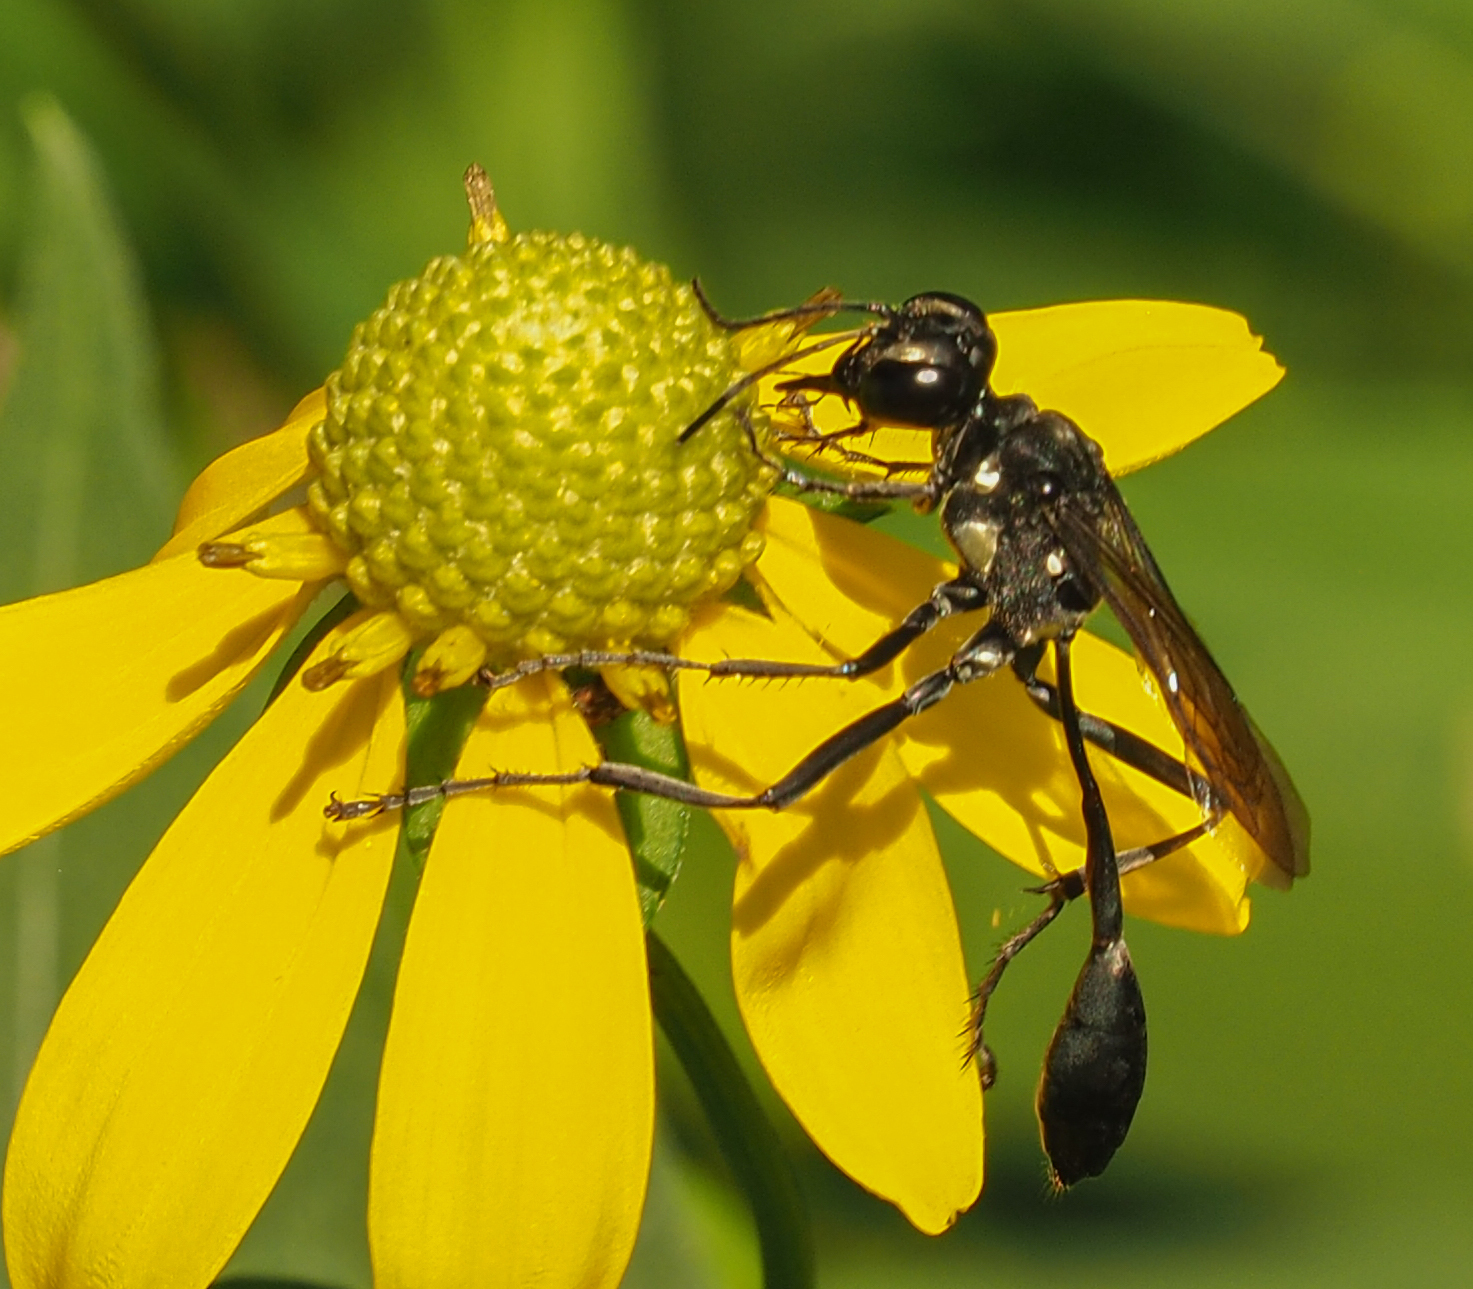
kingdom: Animalia
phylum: Arthropoda
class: Insecta
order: Hymenoptera
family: Sphecidae
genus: Eremnophila
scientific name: Eremnophila aureonotata
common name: Gold-marked thread-waisted wasp
